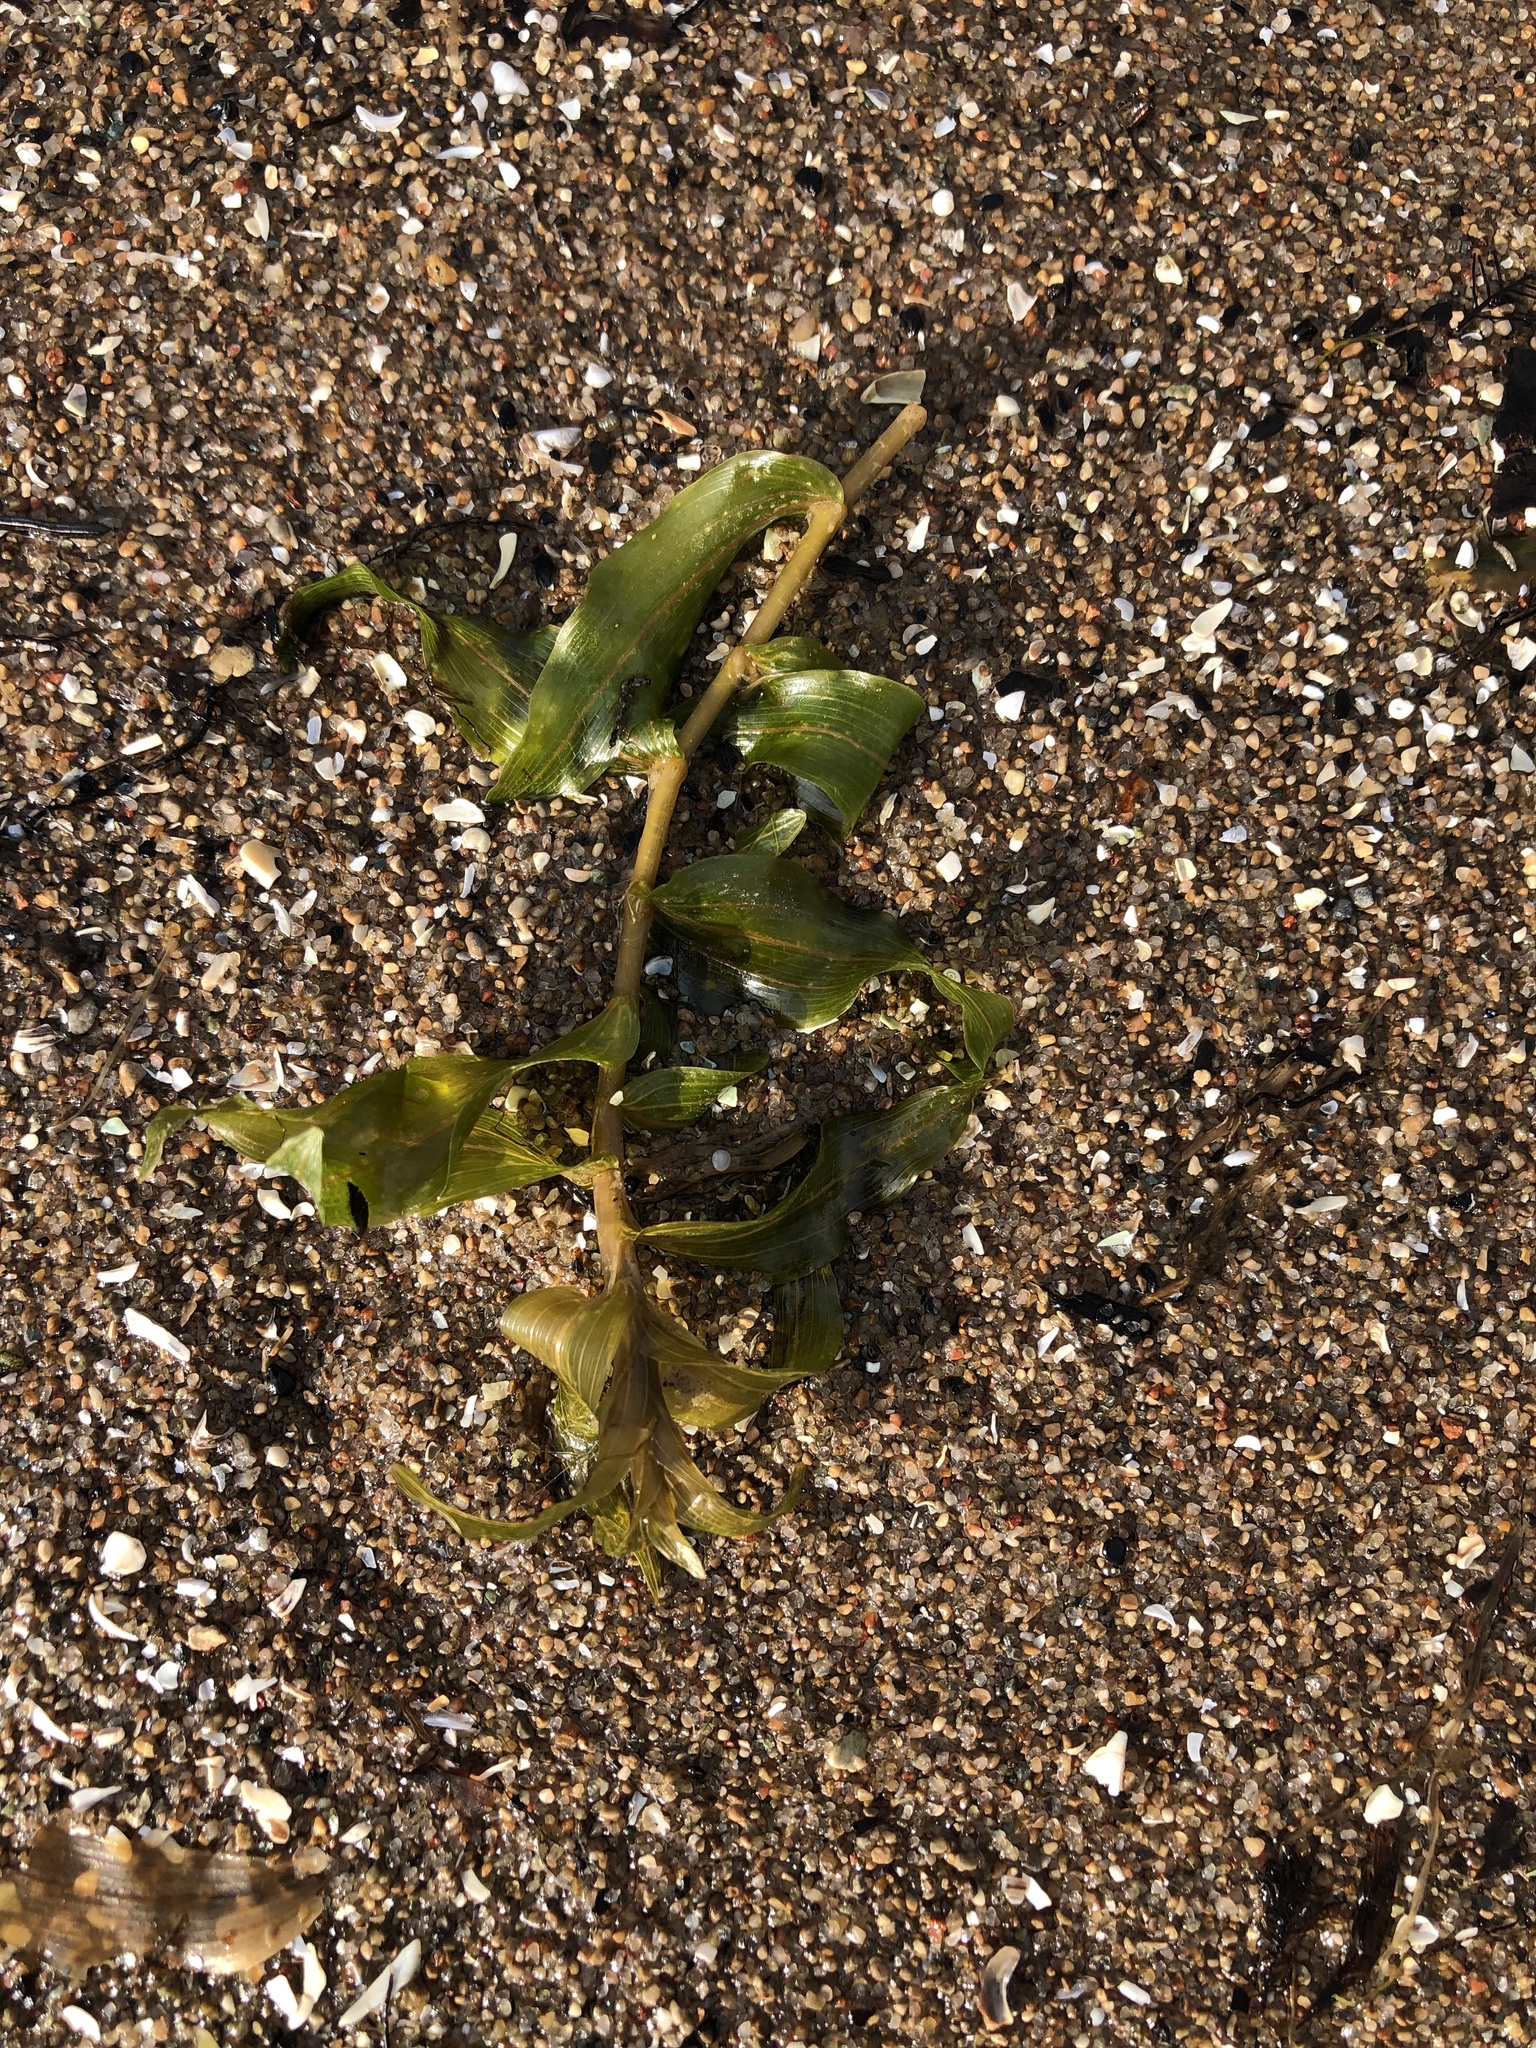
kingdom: Plantae
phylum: Tracheophyta
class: Liliopsida
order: Alismatales
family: Potamogetonaceae
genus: Potamogeton
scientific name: Potamogeton richardsonii
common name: Richardson's pondweed
